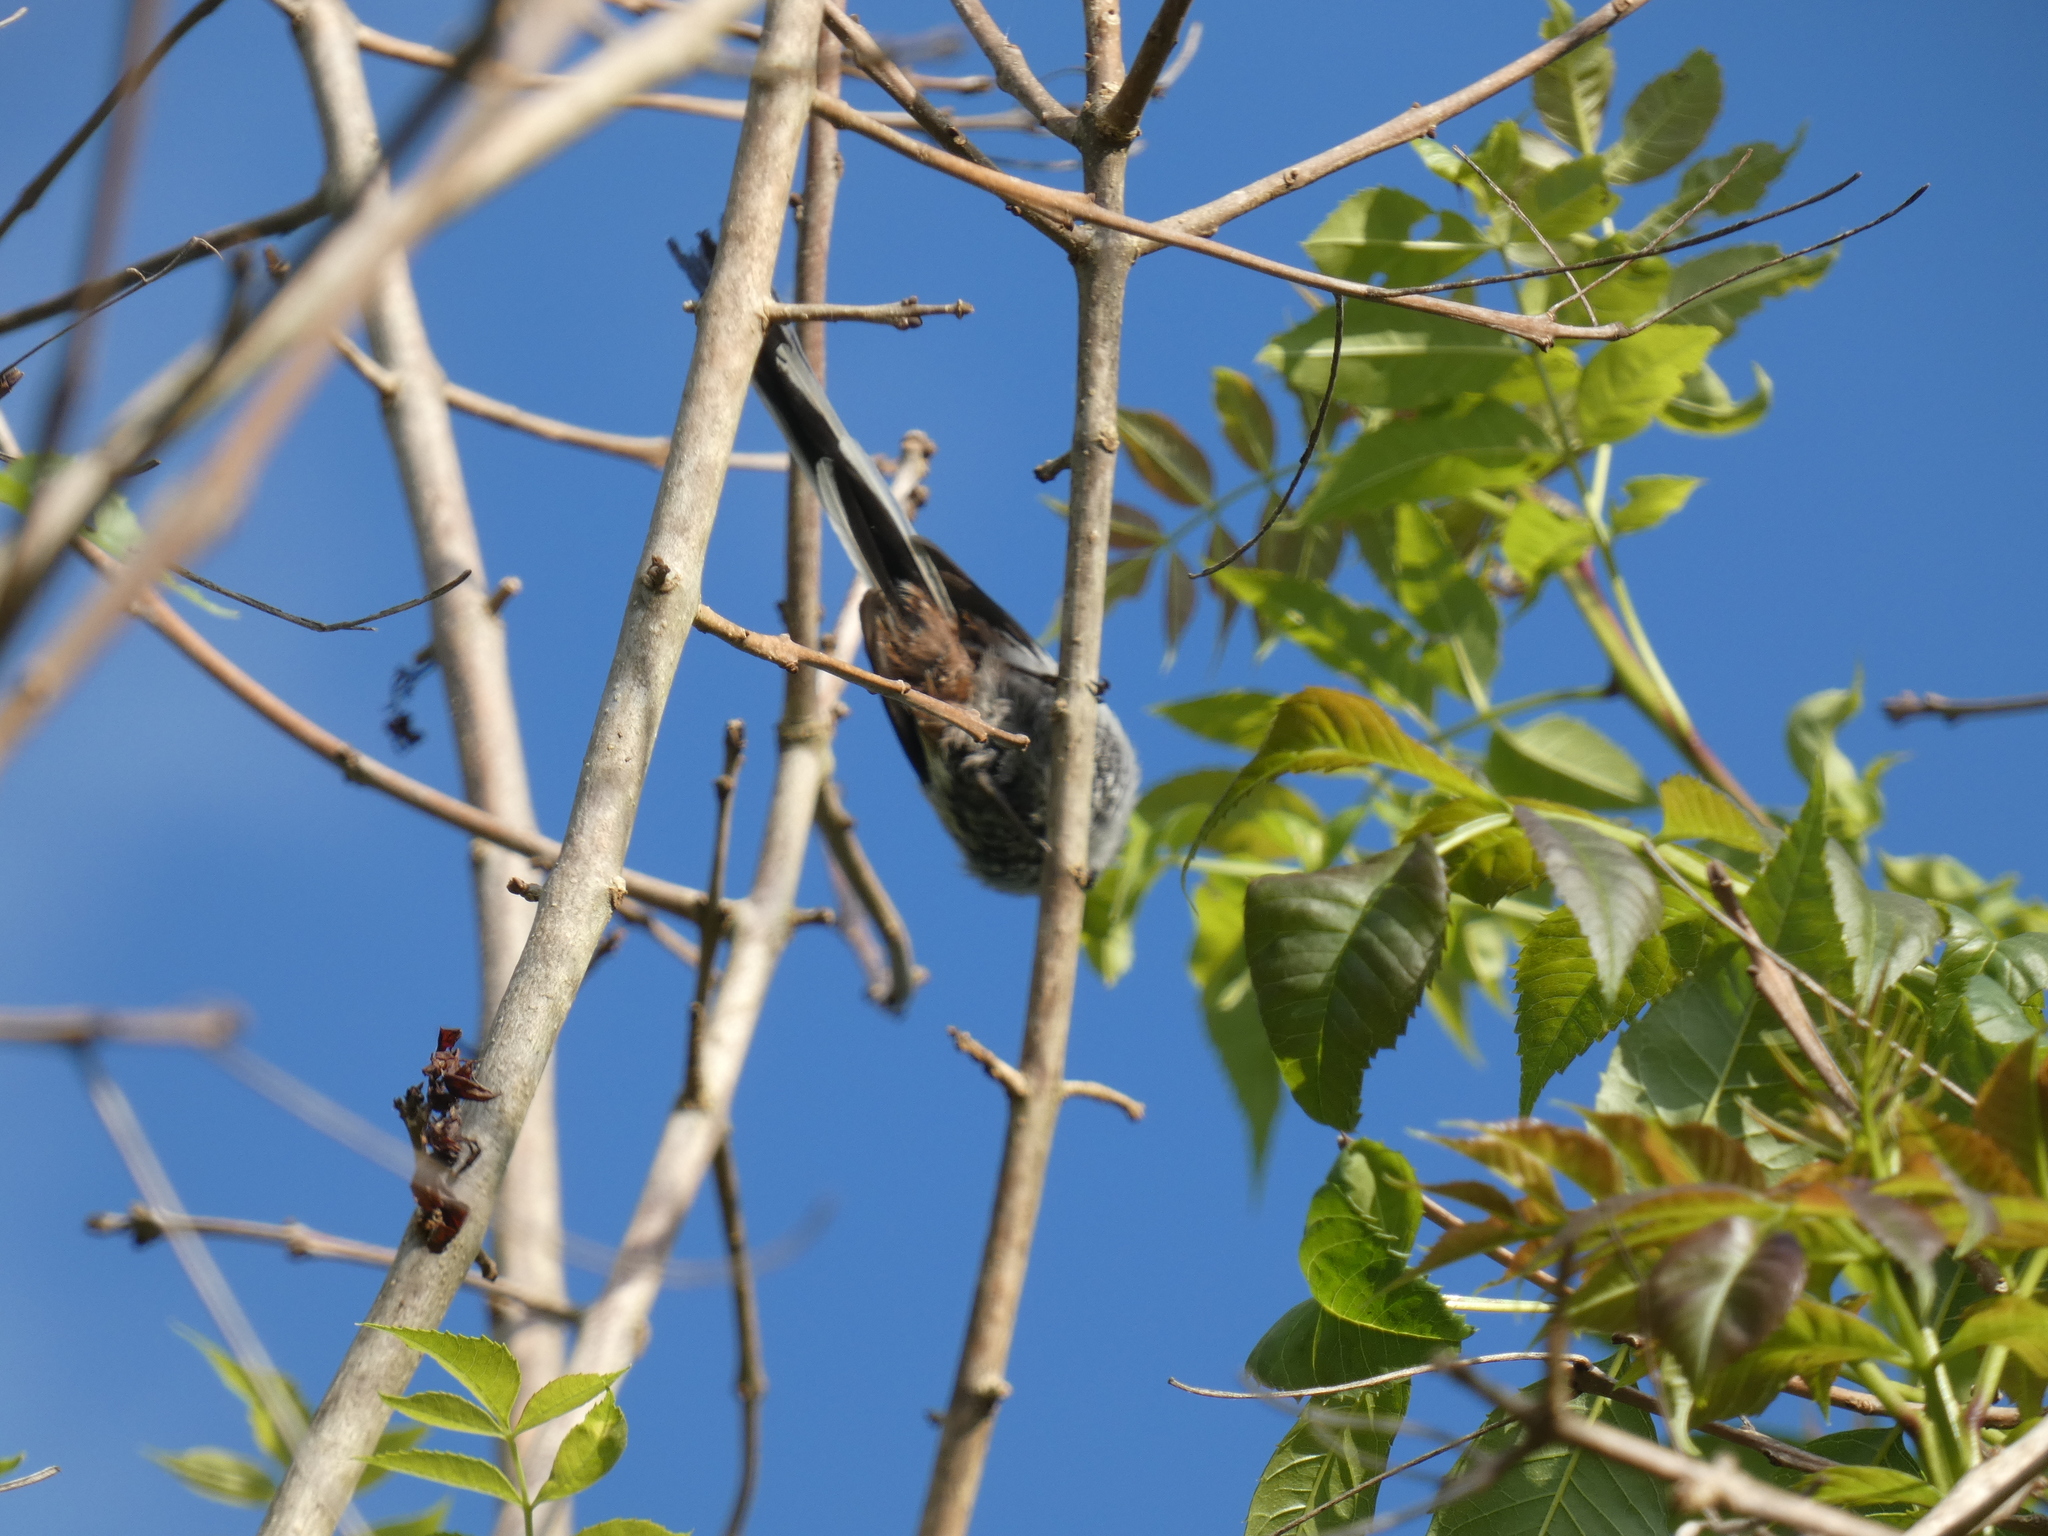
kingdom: Animalia
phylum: Chordata
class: Aves
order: Passeriformes
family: Aegithalidae
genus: Aegithalos
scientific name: Aegithalos caudatus
